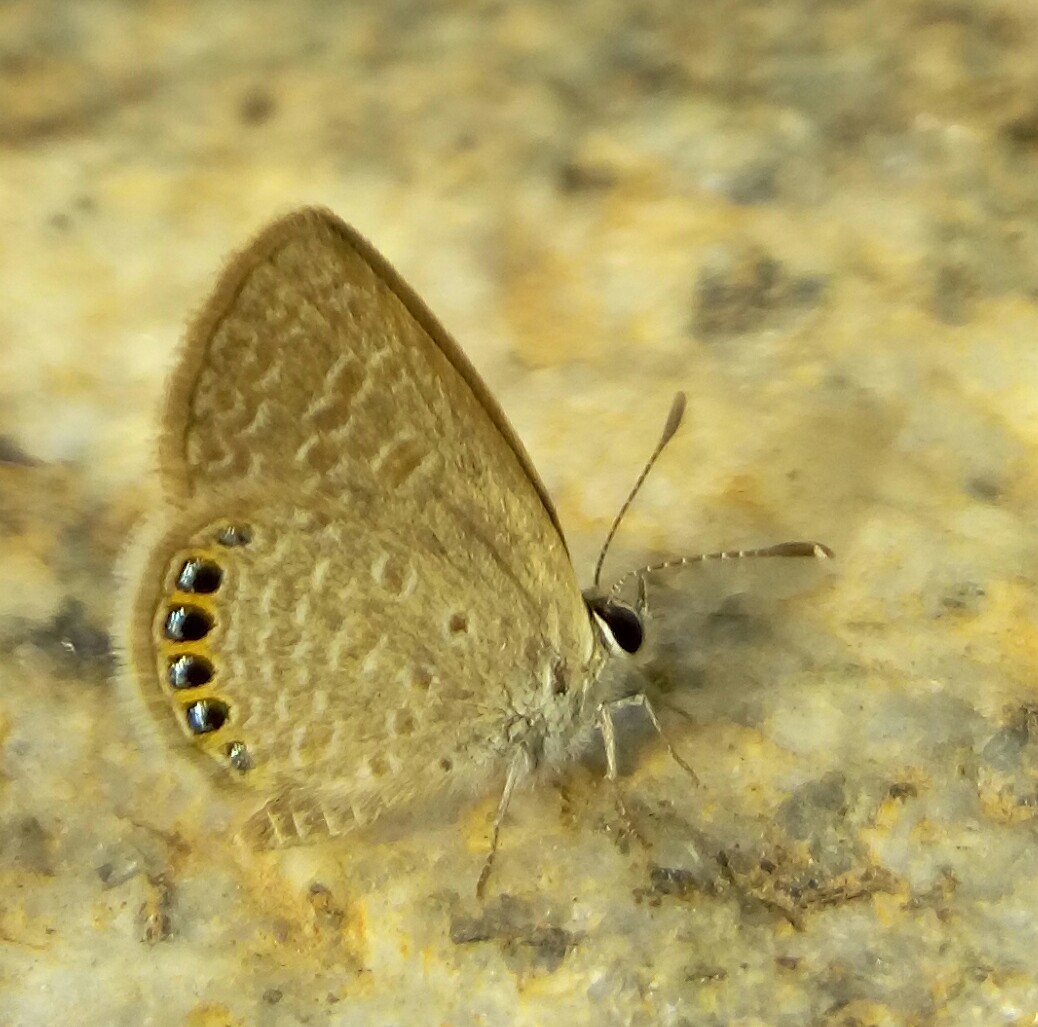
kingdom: Animalia
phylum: Arthropoda
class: Insecta
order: Lepidoptera
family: Lycaenidae
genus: Freyeria
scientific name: Freyeria putli
